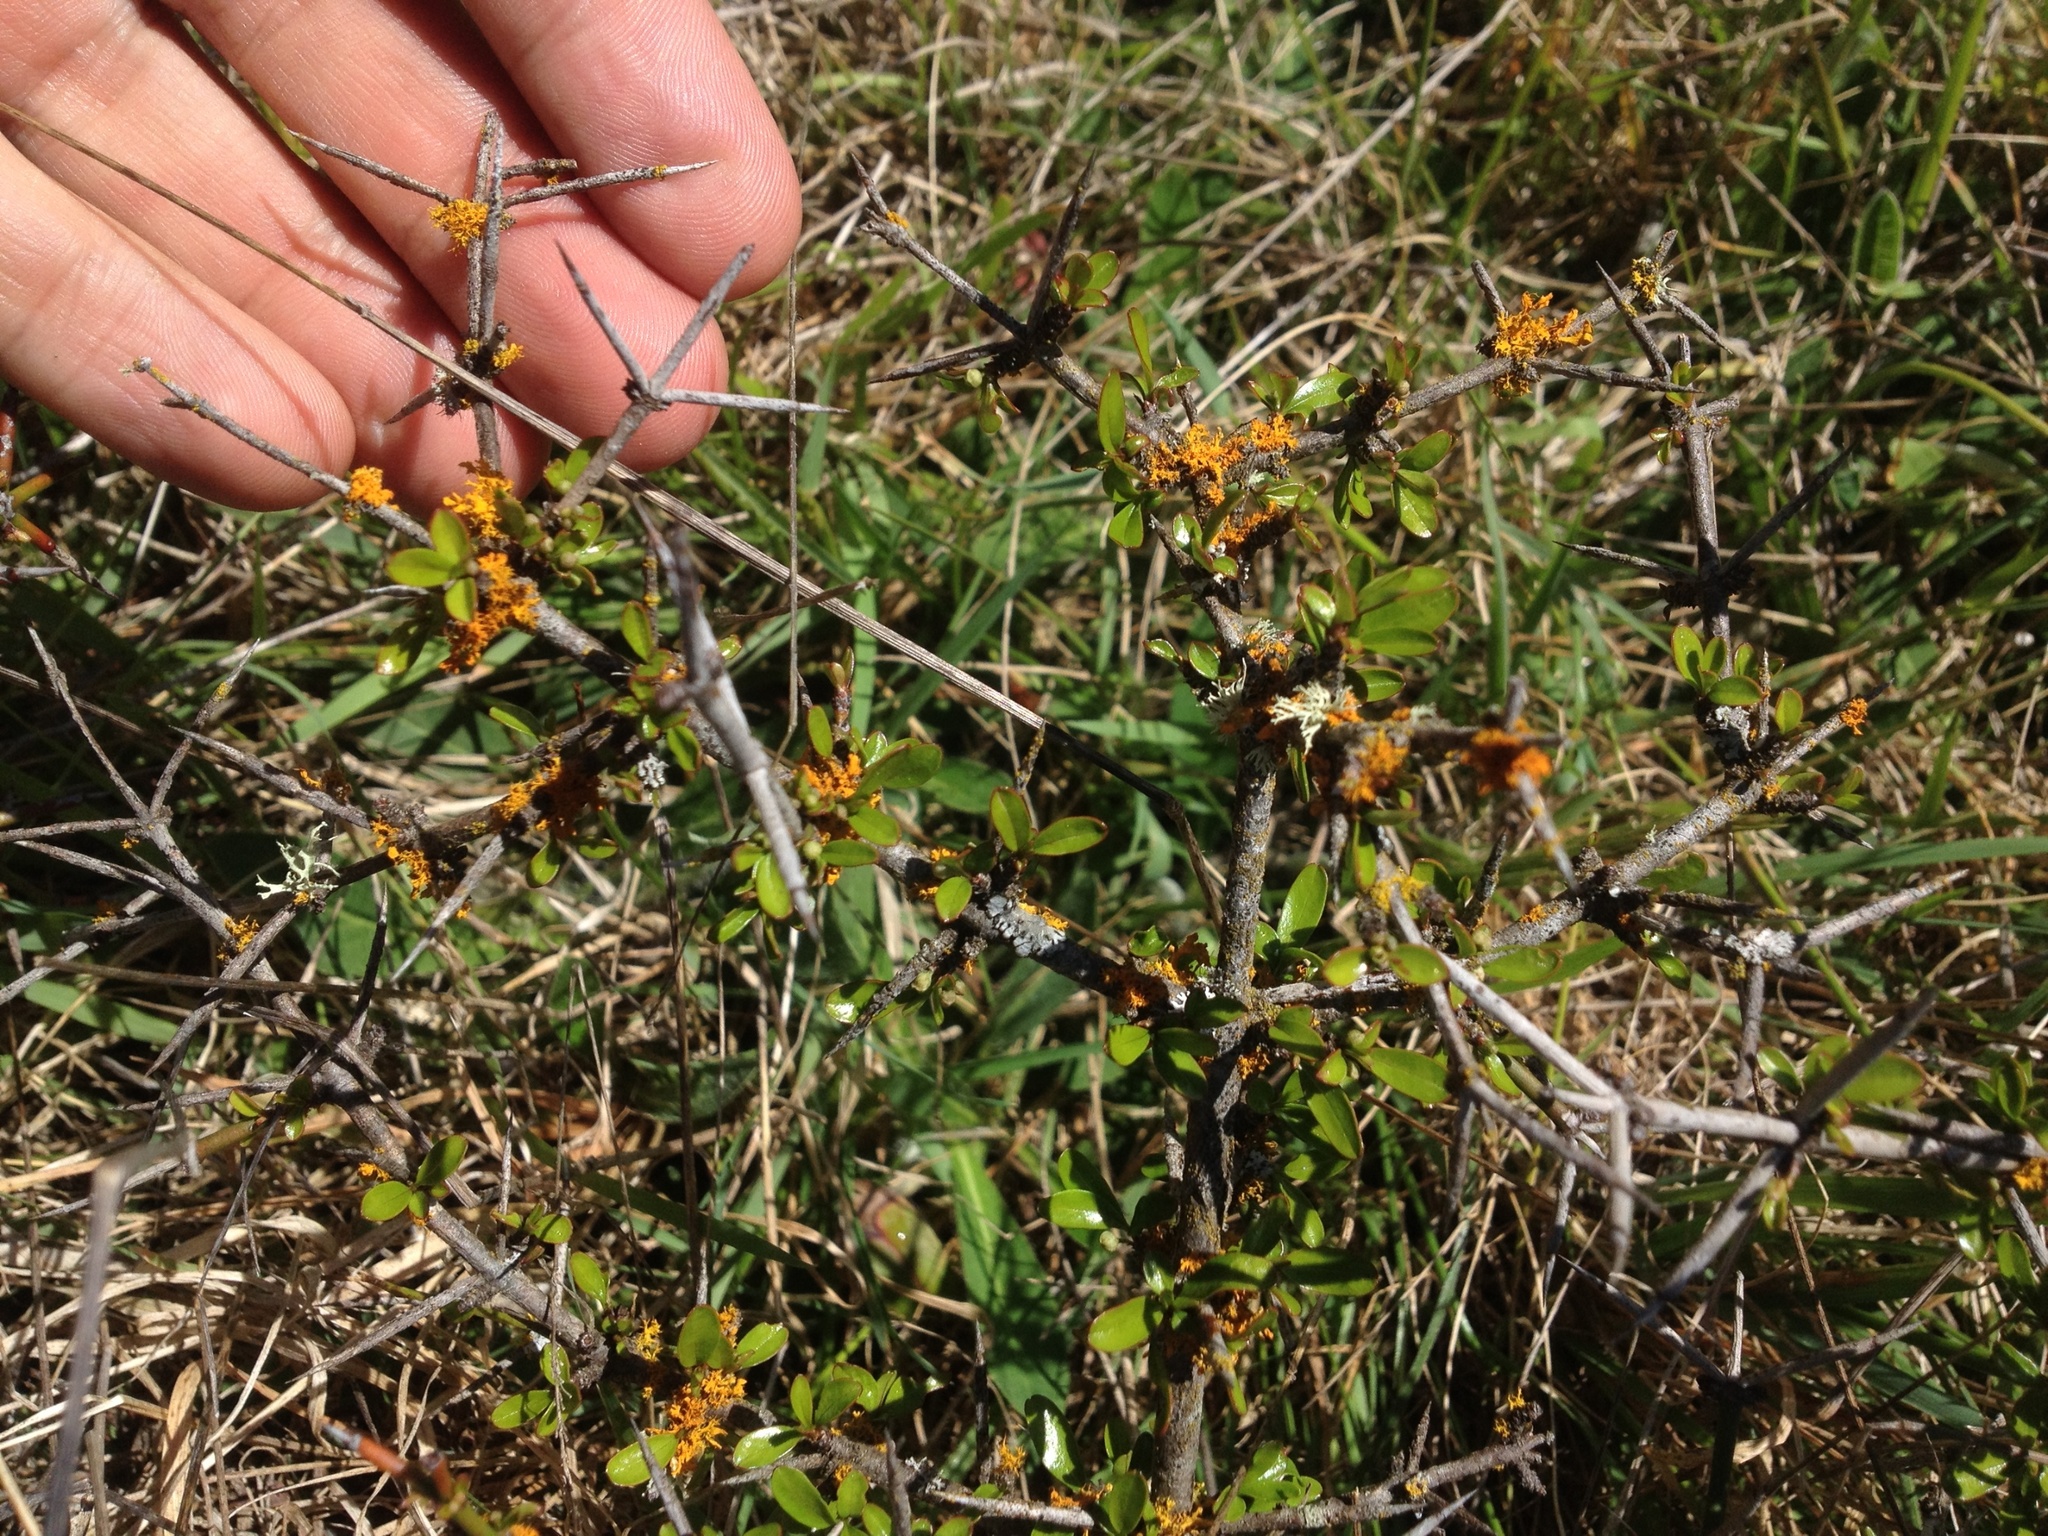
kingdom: Plantae
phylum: Tracheophyta
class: Magnoliopsida
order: Rosales
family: Rhamnaceae
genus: Discaria
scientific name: Discaria toumatou
